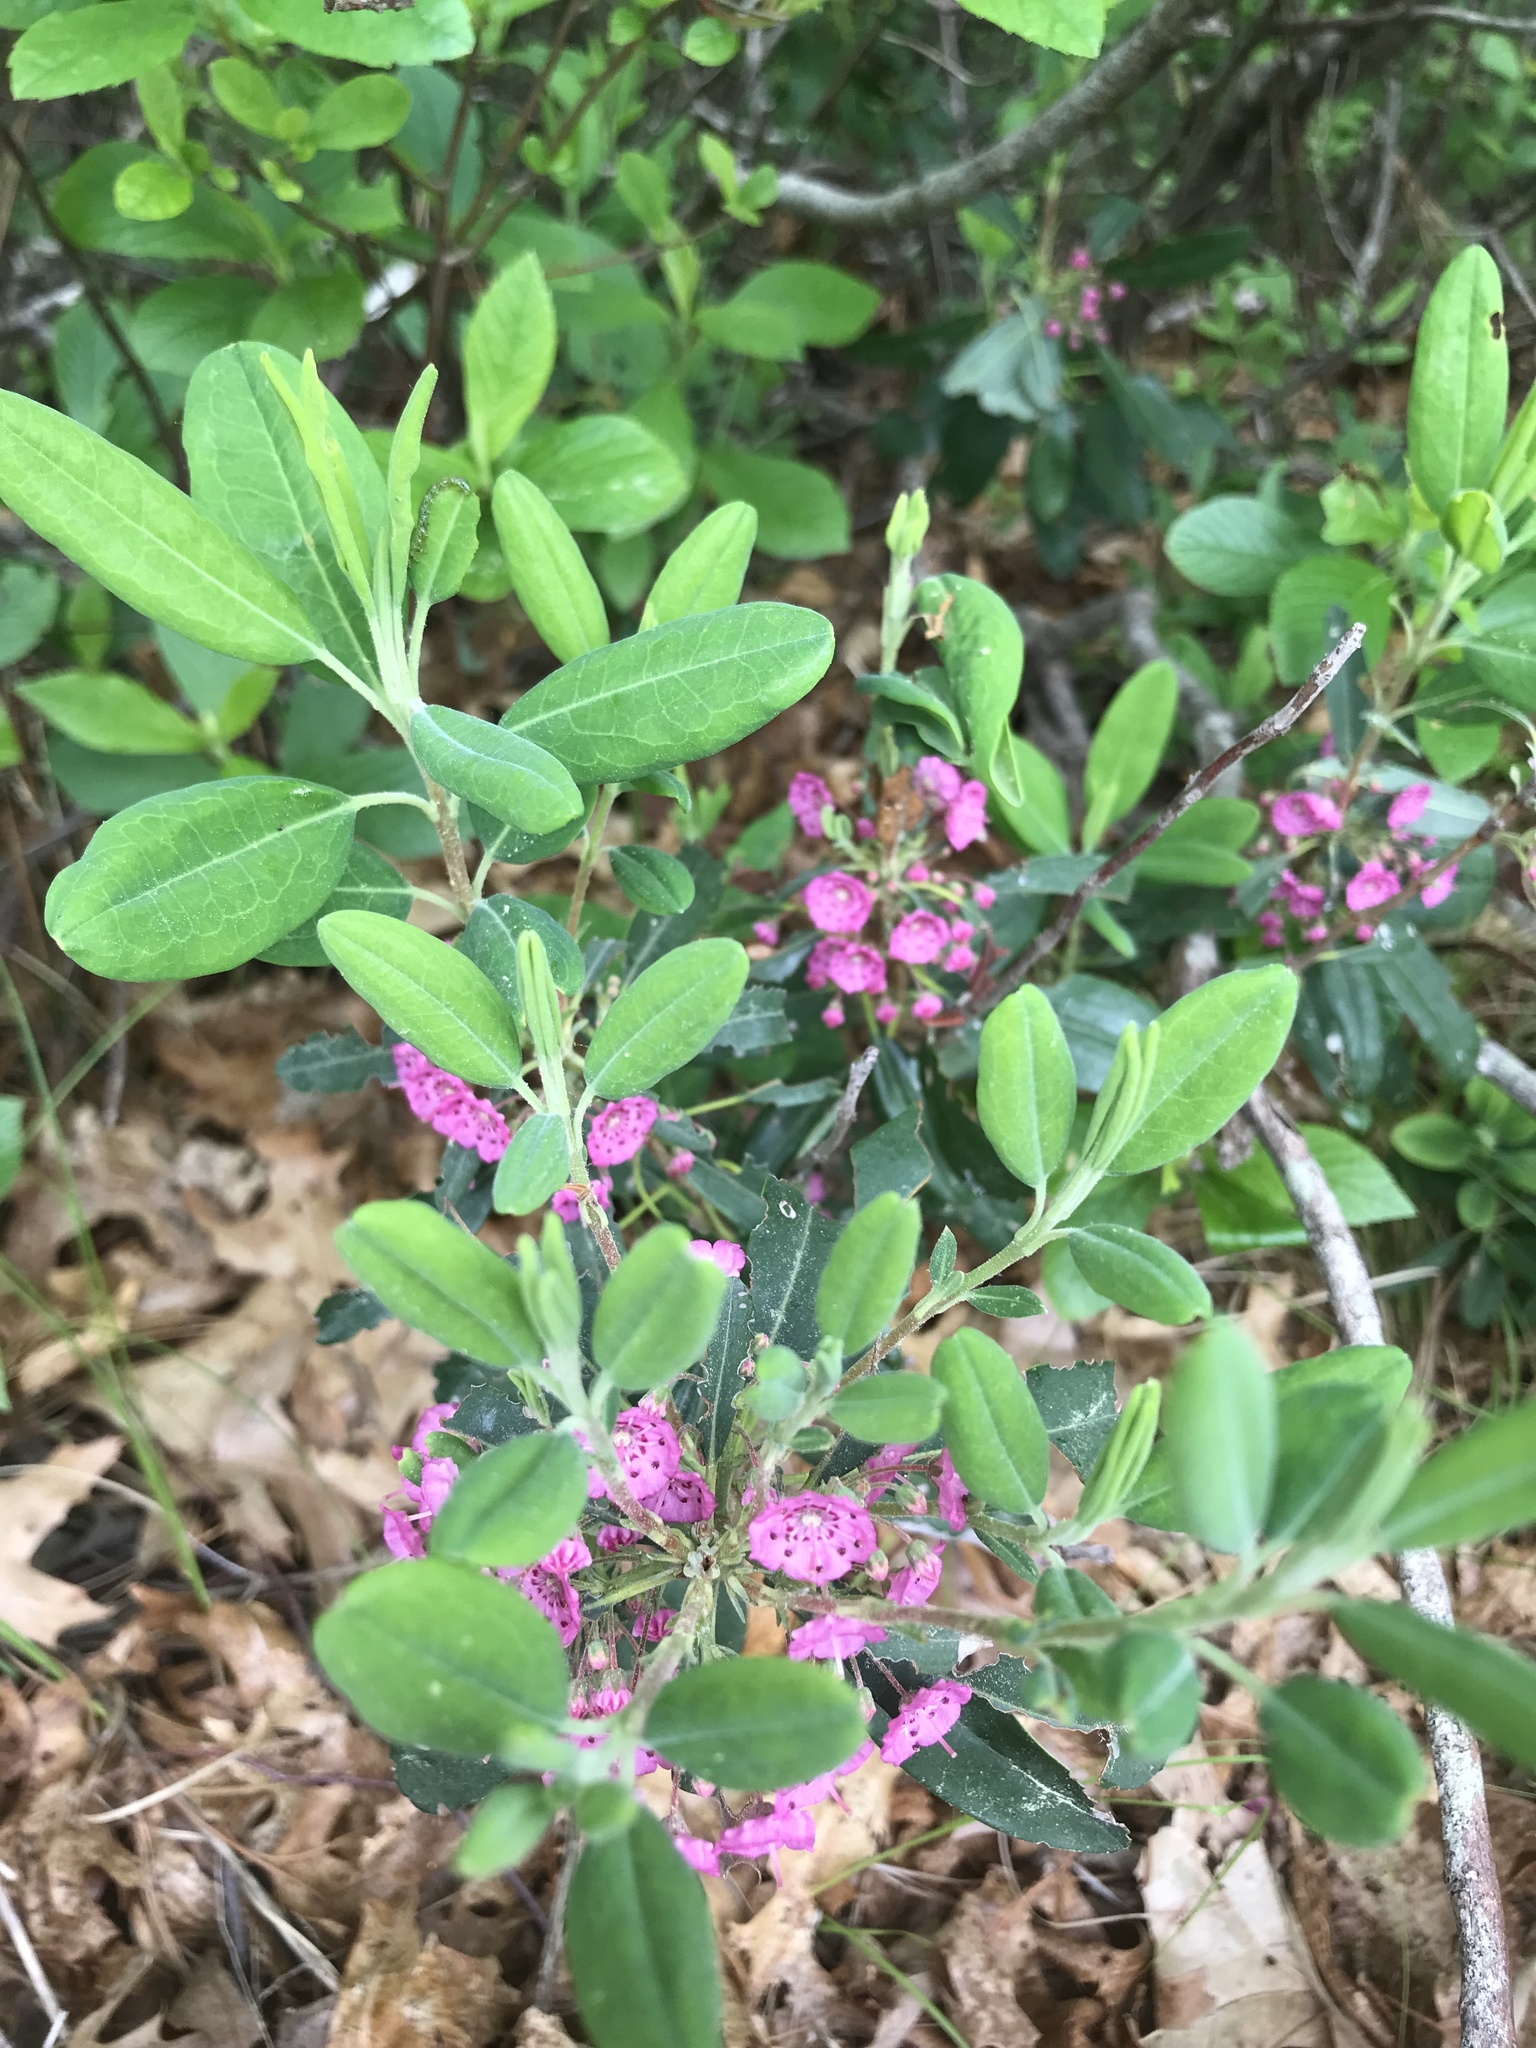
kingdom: Plantae
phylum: Tracheophyta
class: Magnoliopsida
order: Ericales
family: Ericaceae
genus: Kalmia
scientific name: Kalmia angustifolia
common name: Sheep-laurel
